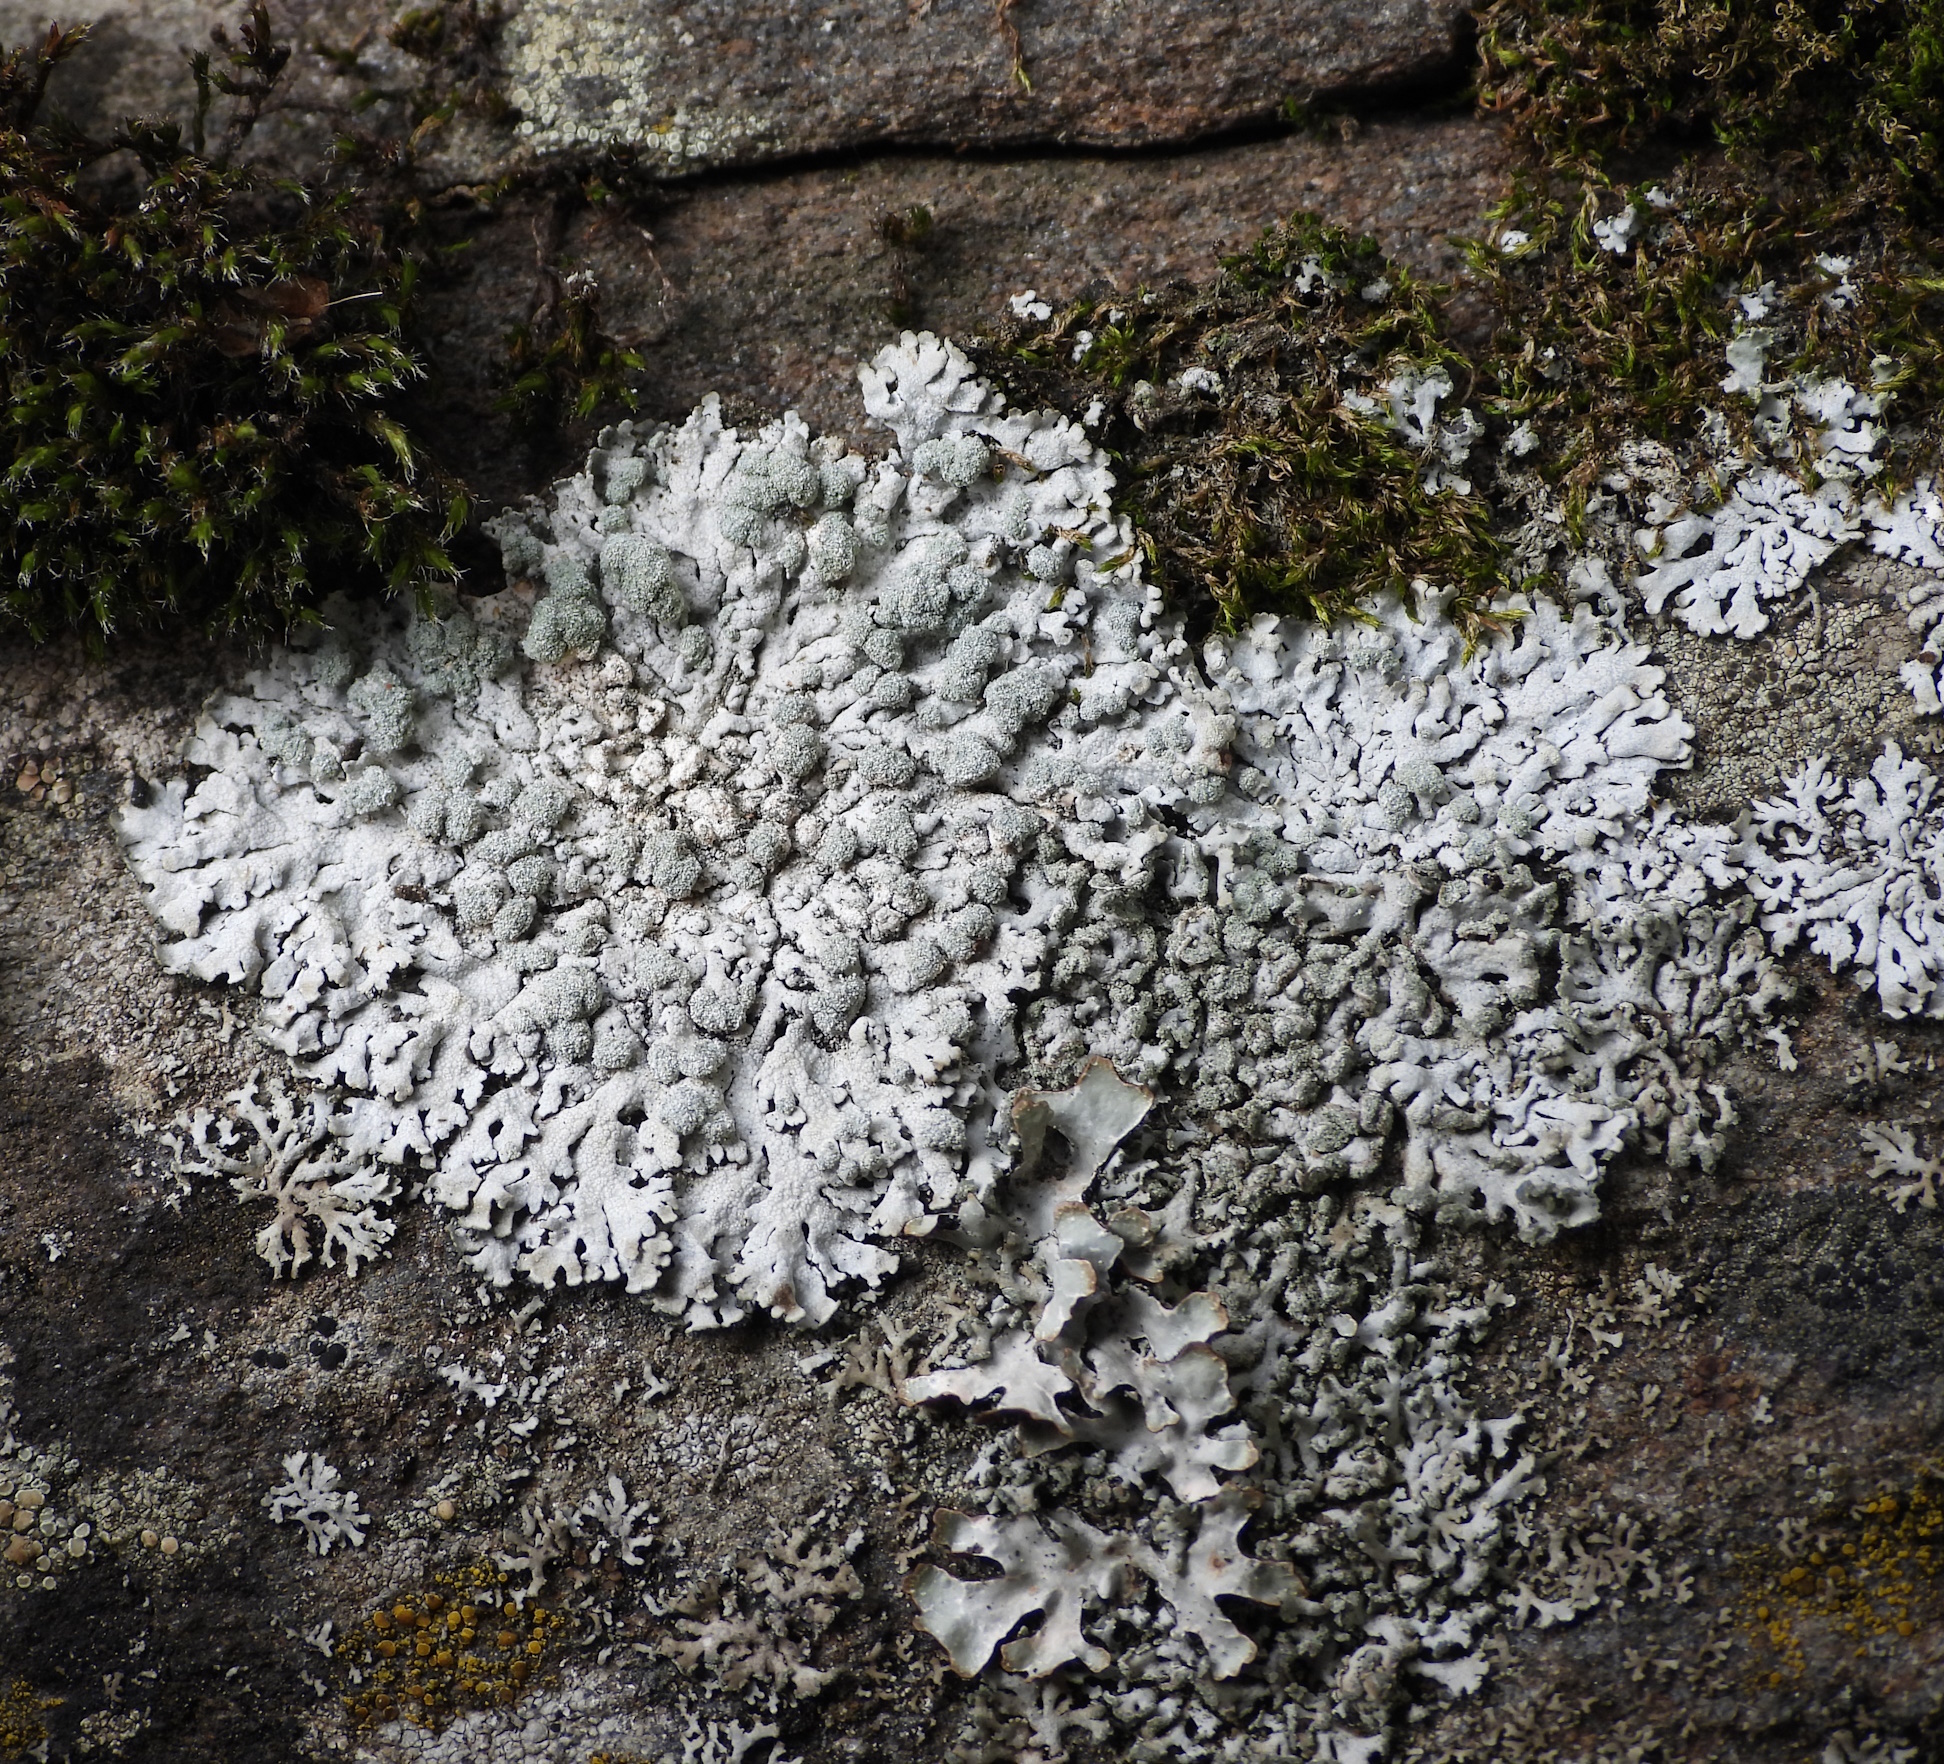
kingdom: Fungi
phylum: Ascomycota
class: Lecanoromycetes
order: Caliciales
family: Physciaceae
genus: Physcia
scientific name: Physcia caesia
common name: Blue-gray rosette lichen
